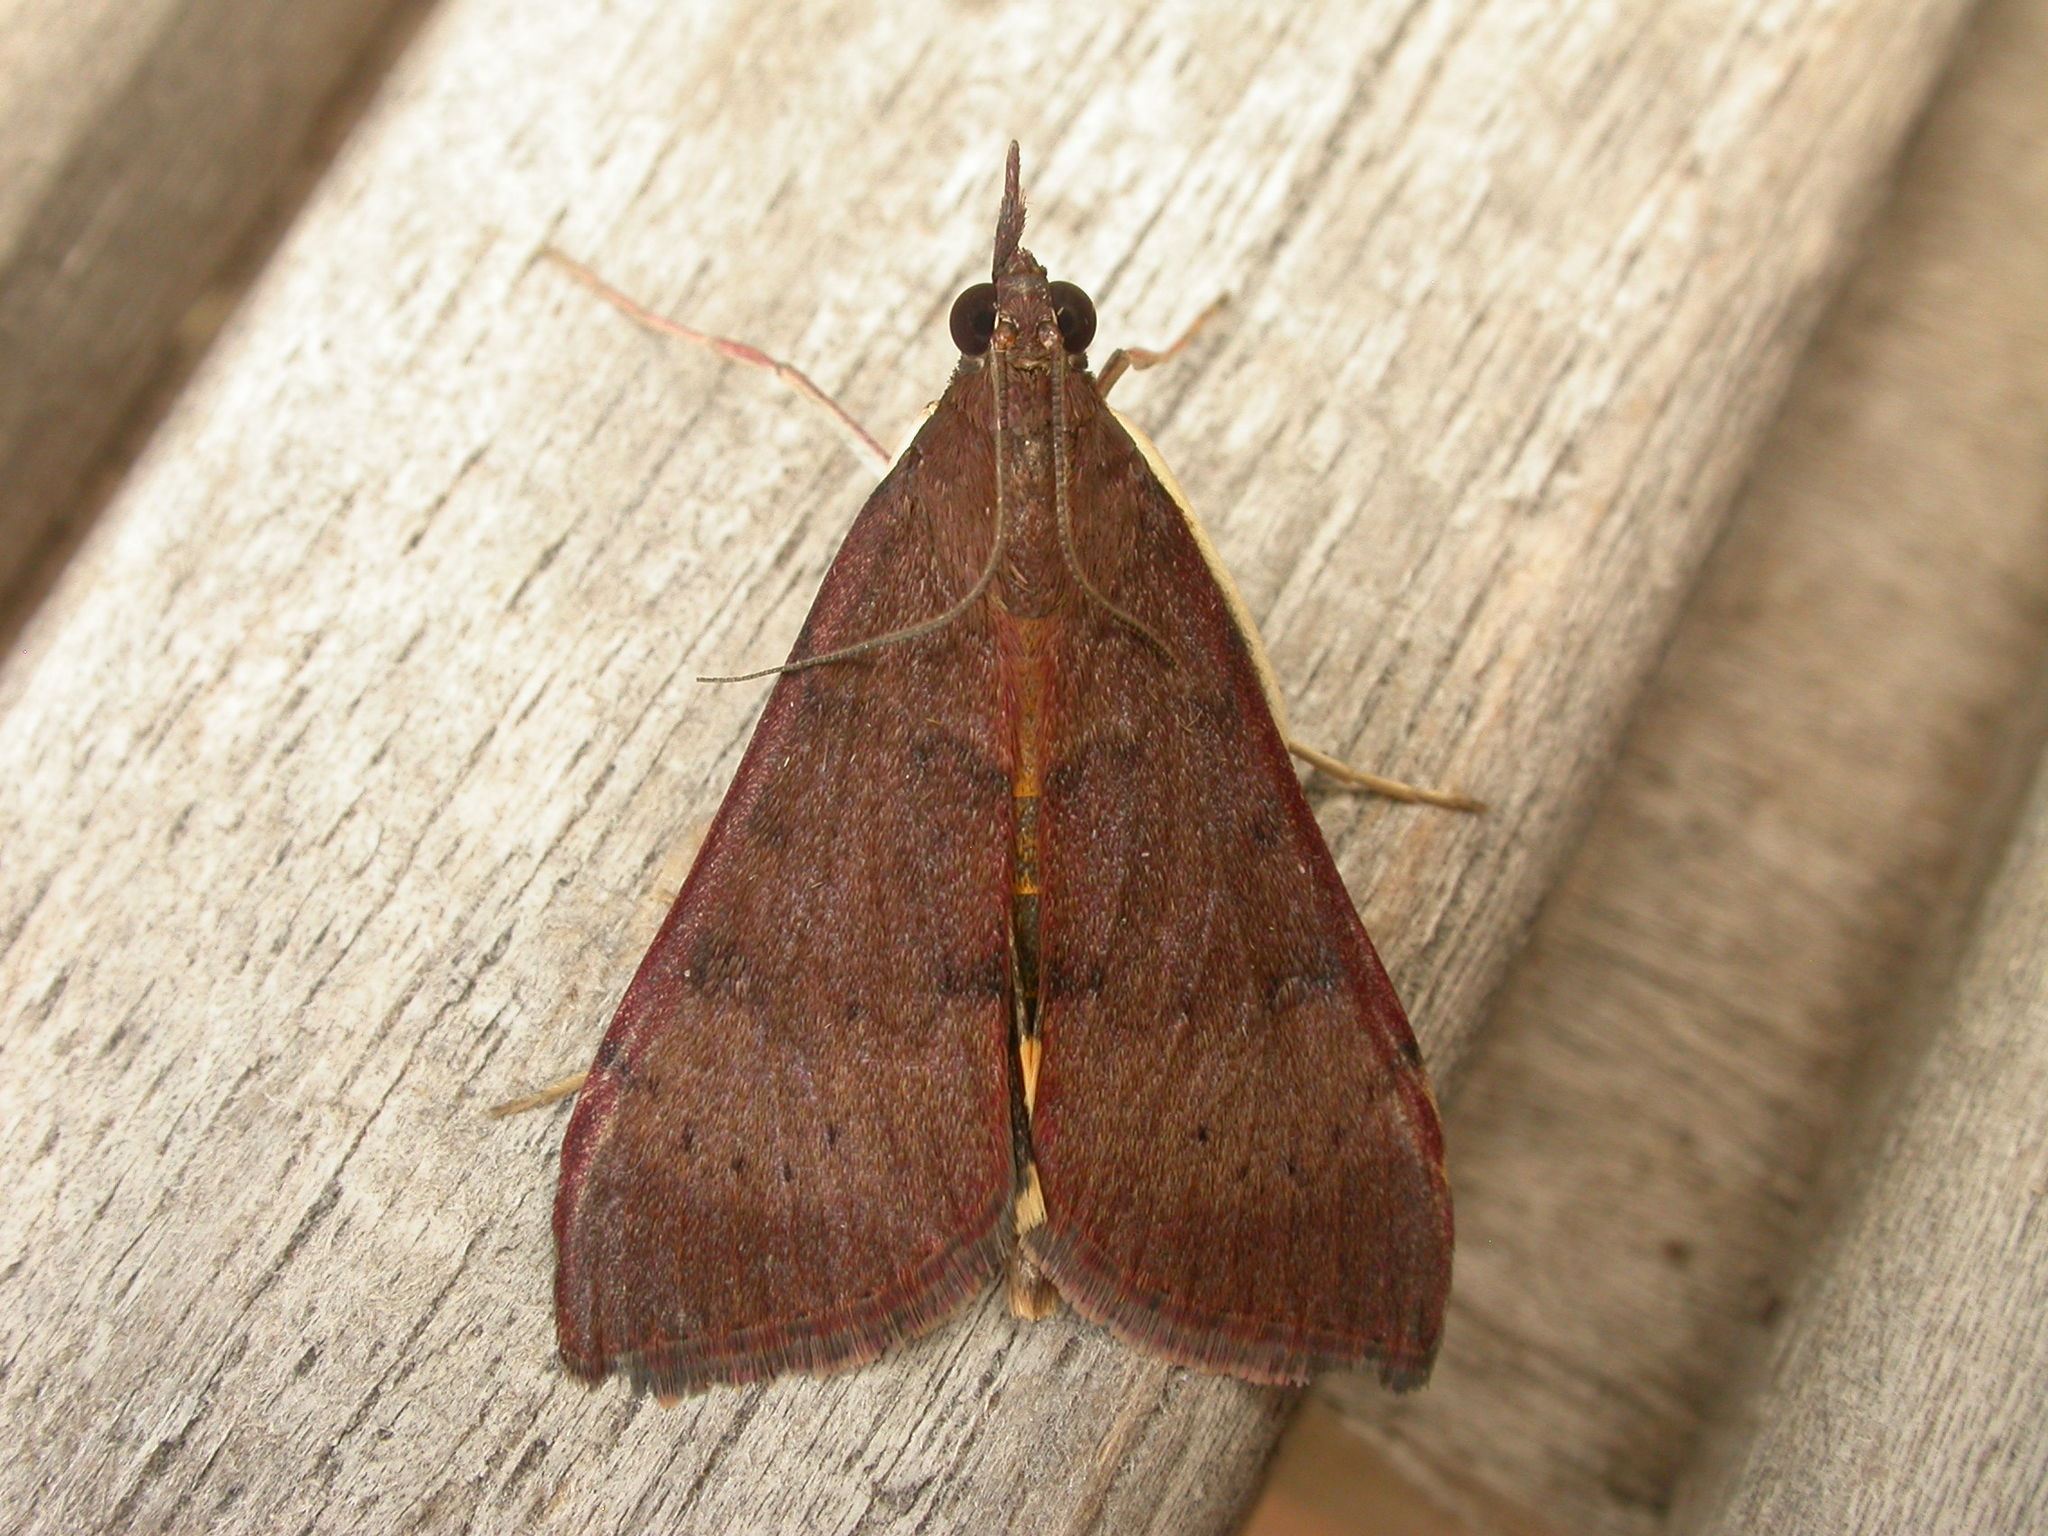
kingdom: Animalia
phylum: Arthropoda
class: Insecta
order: Lepidoptera
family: Crambidae
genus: Uresiphita
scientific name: Uresiphita ornithopteralis
